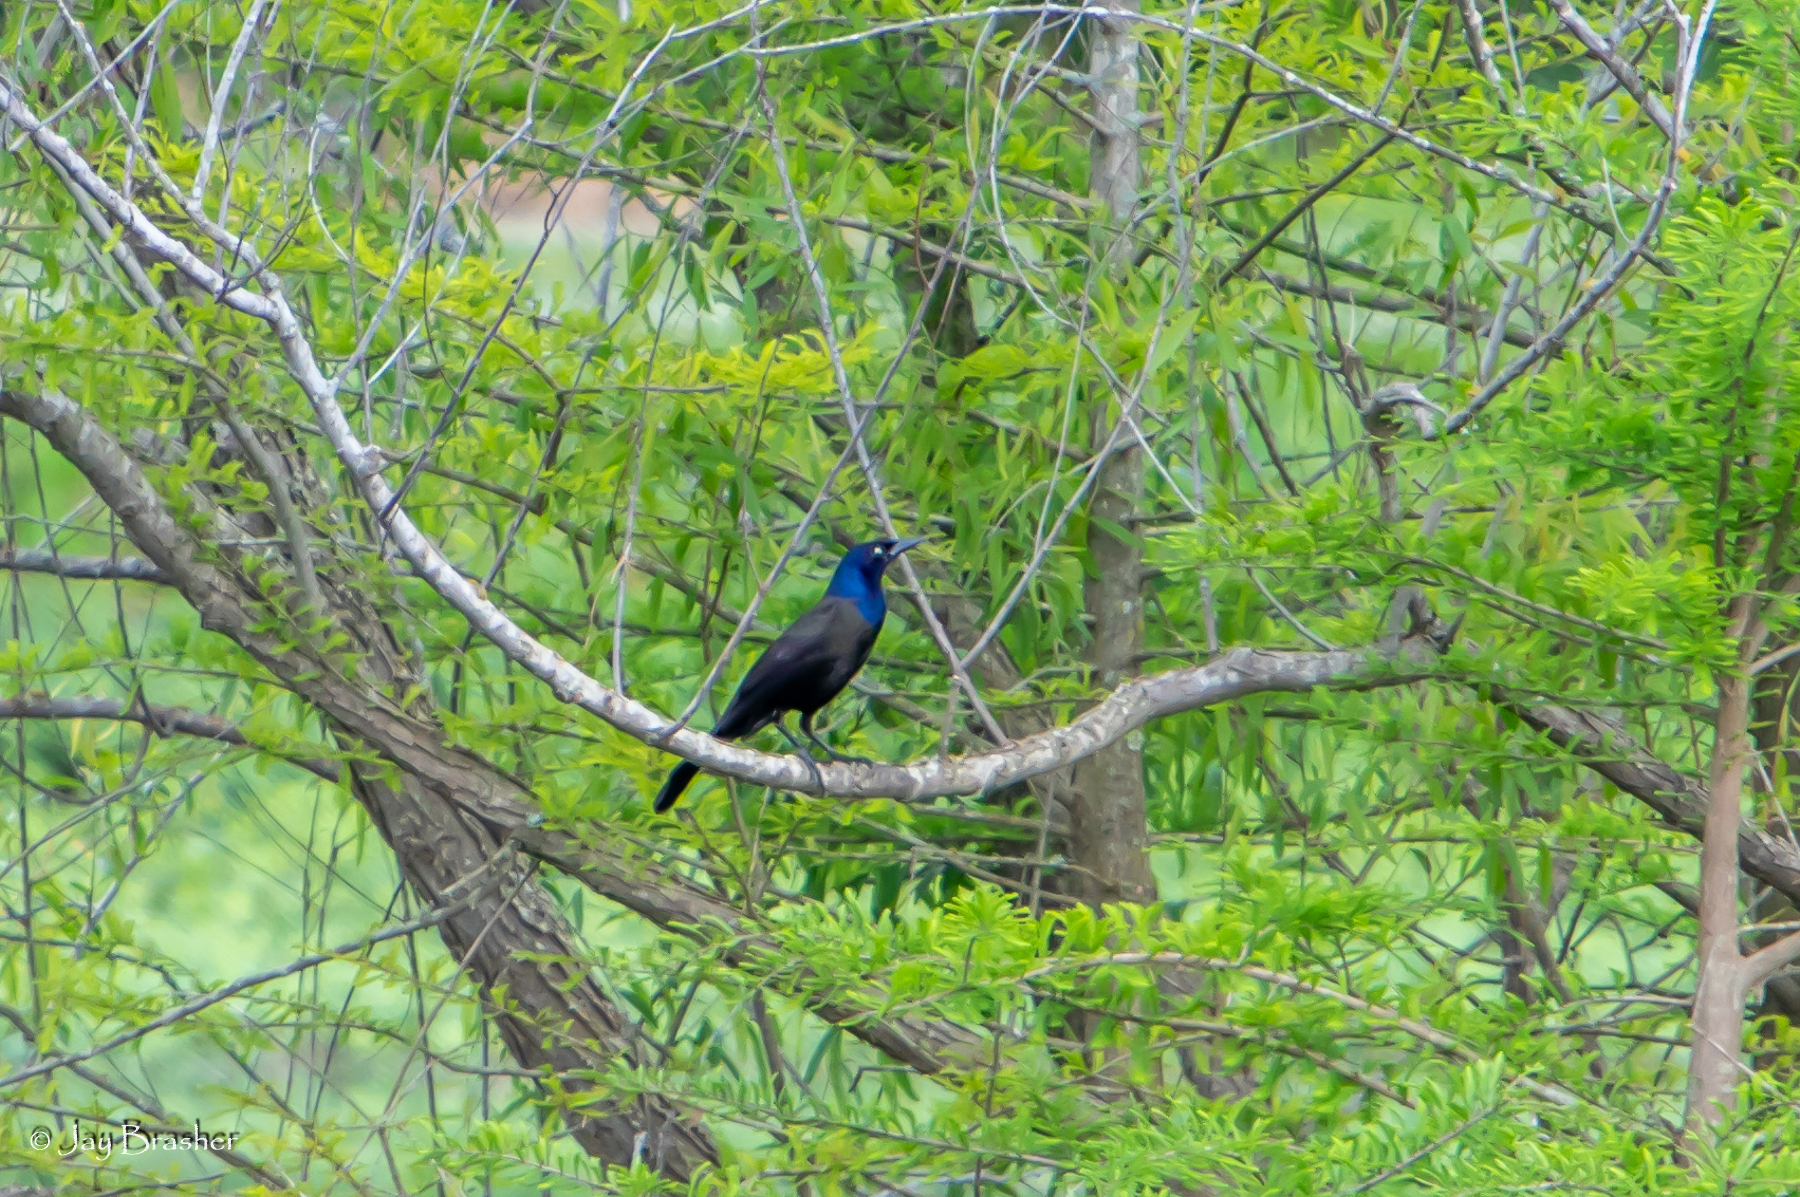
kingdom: Animalia
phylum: Chordata
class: Aves
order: Passeriformes
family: Icteridae
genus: Quiscalus
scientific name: Quiscalus quiscula
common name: Common grackle
